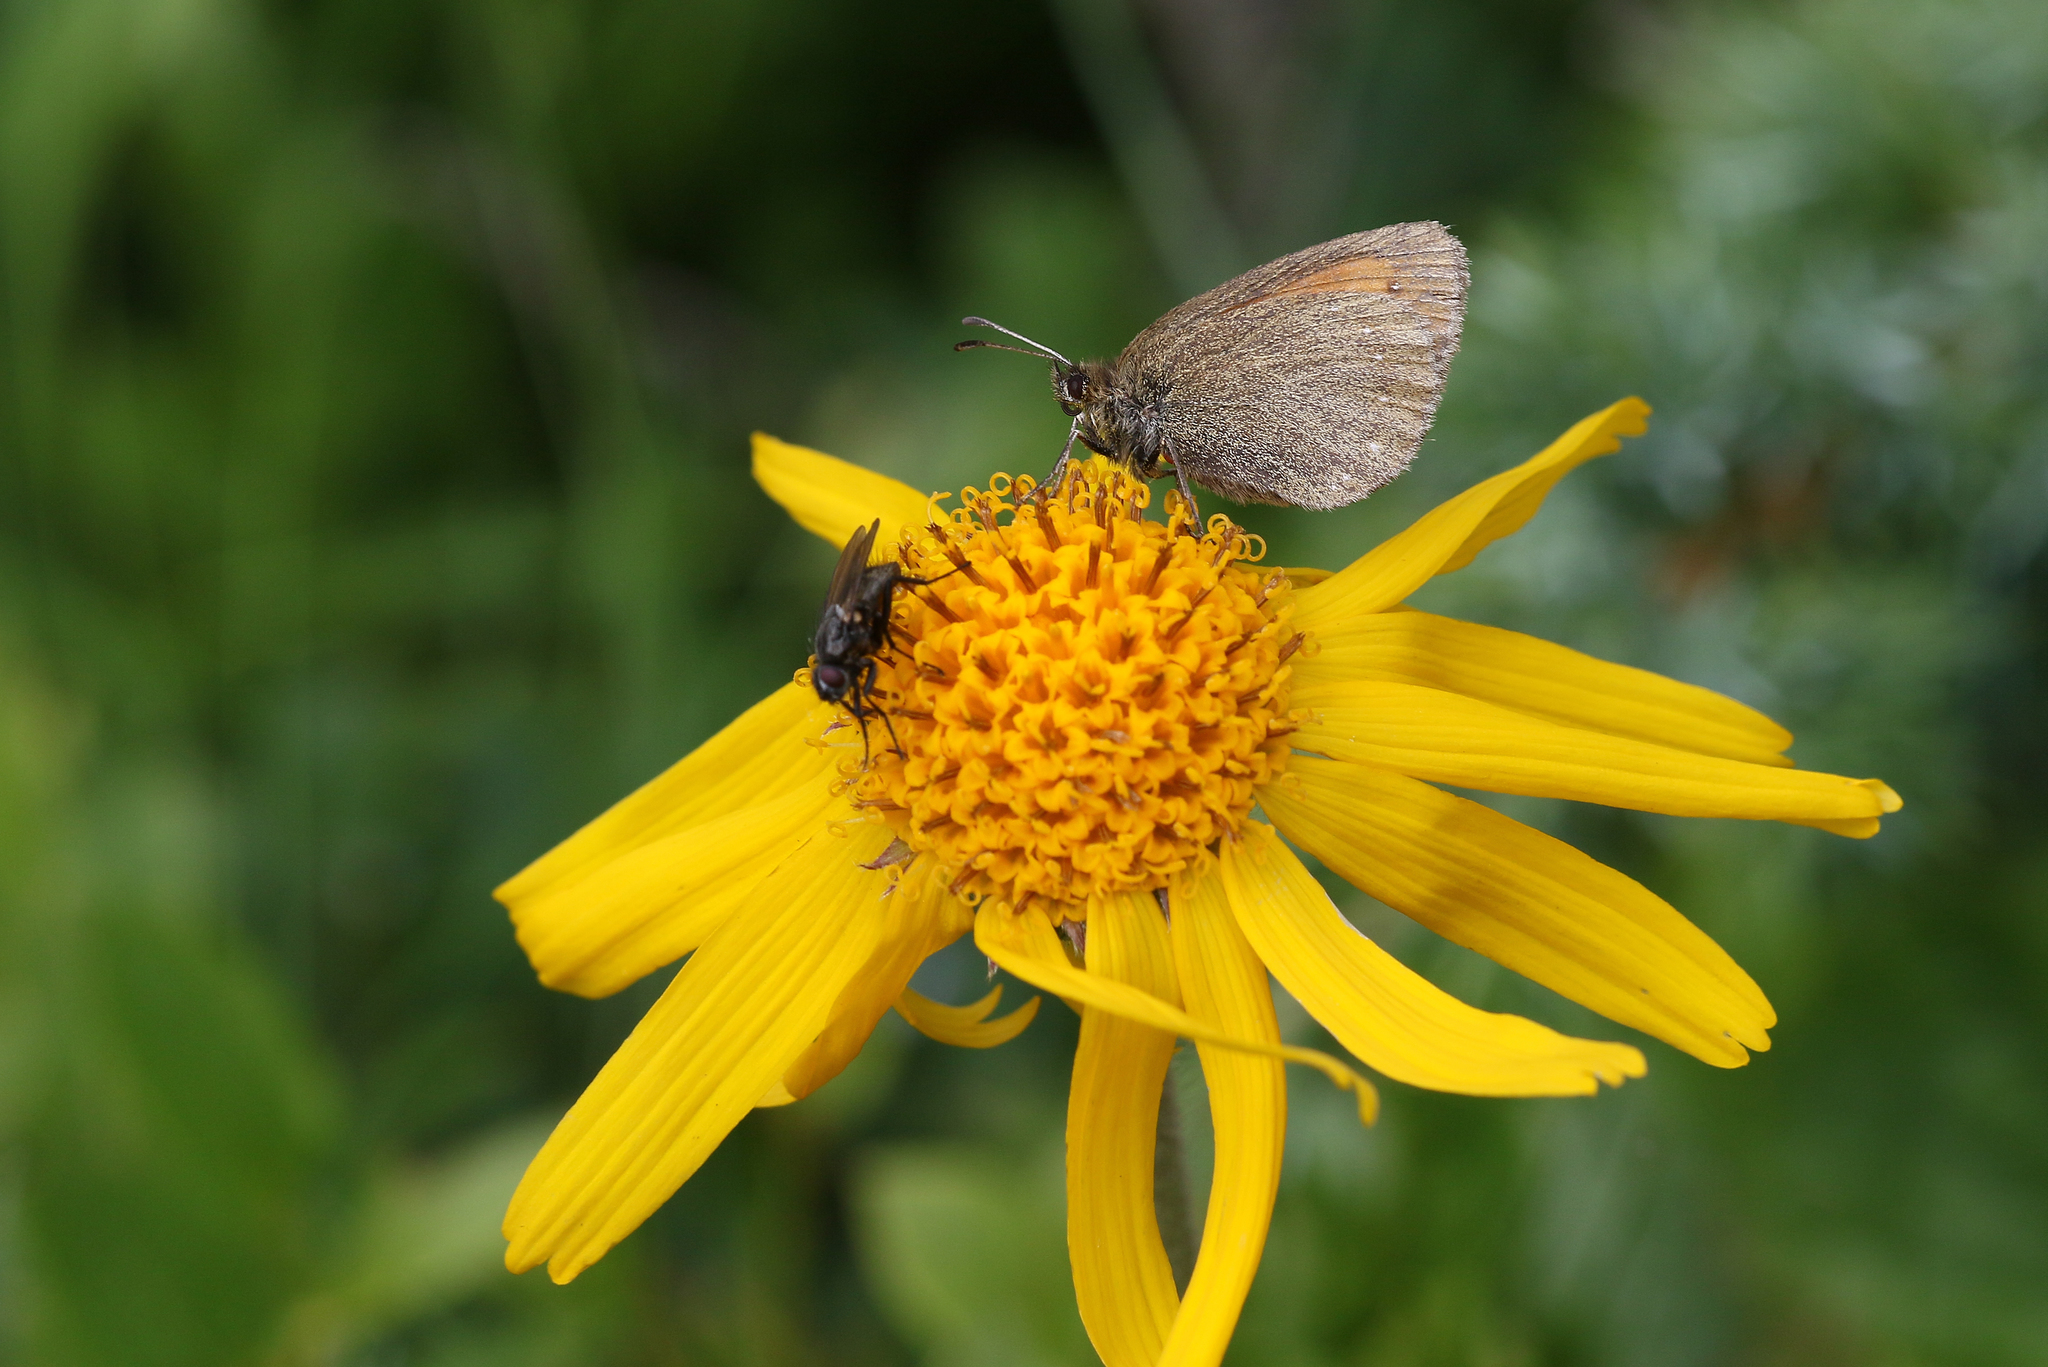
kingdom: Animalia
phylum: Arthropoda
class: Insecta
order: Lepidoptera
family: Nymphalidae
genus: Erebia
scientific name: Erebia arete
